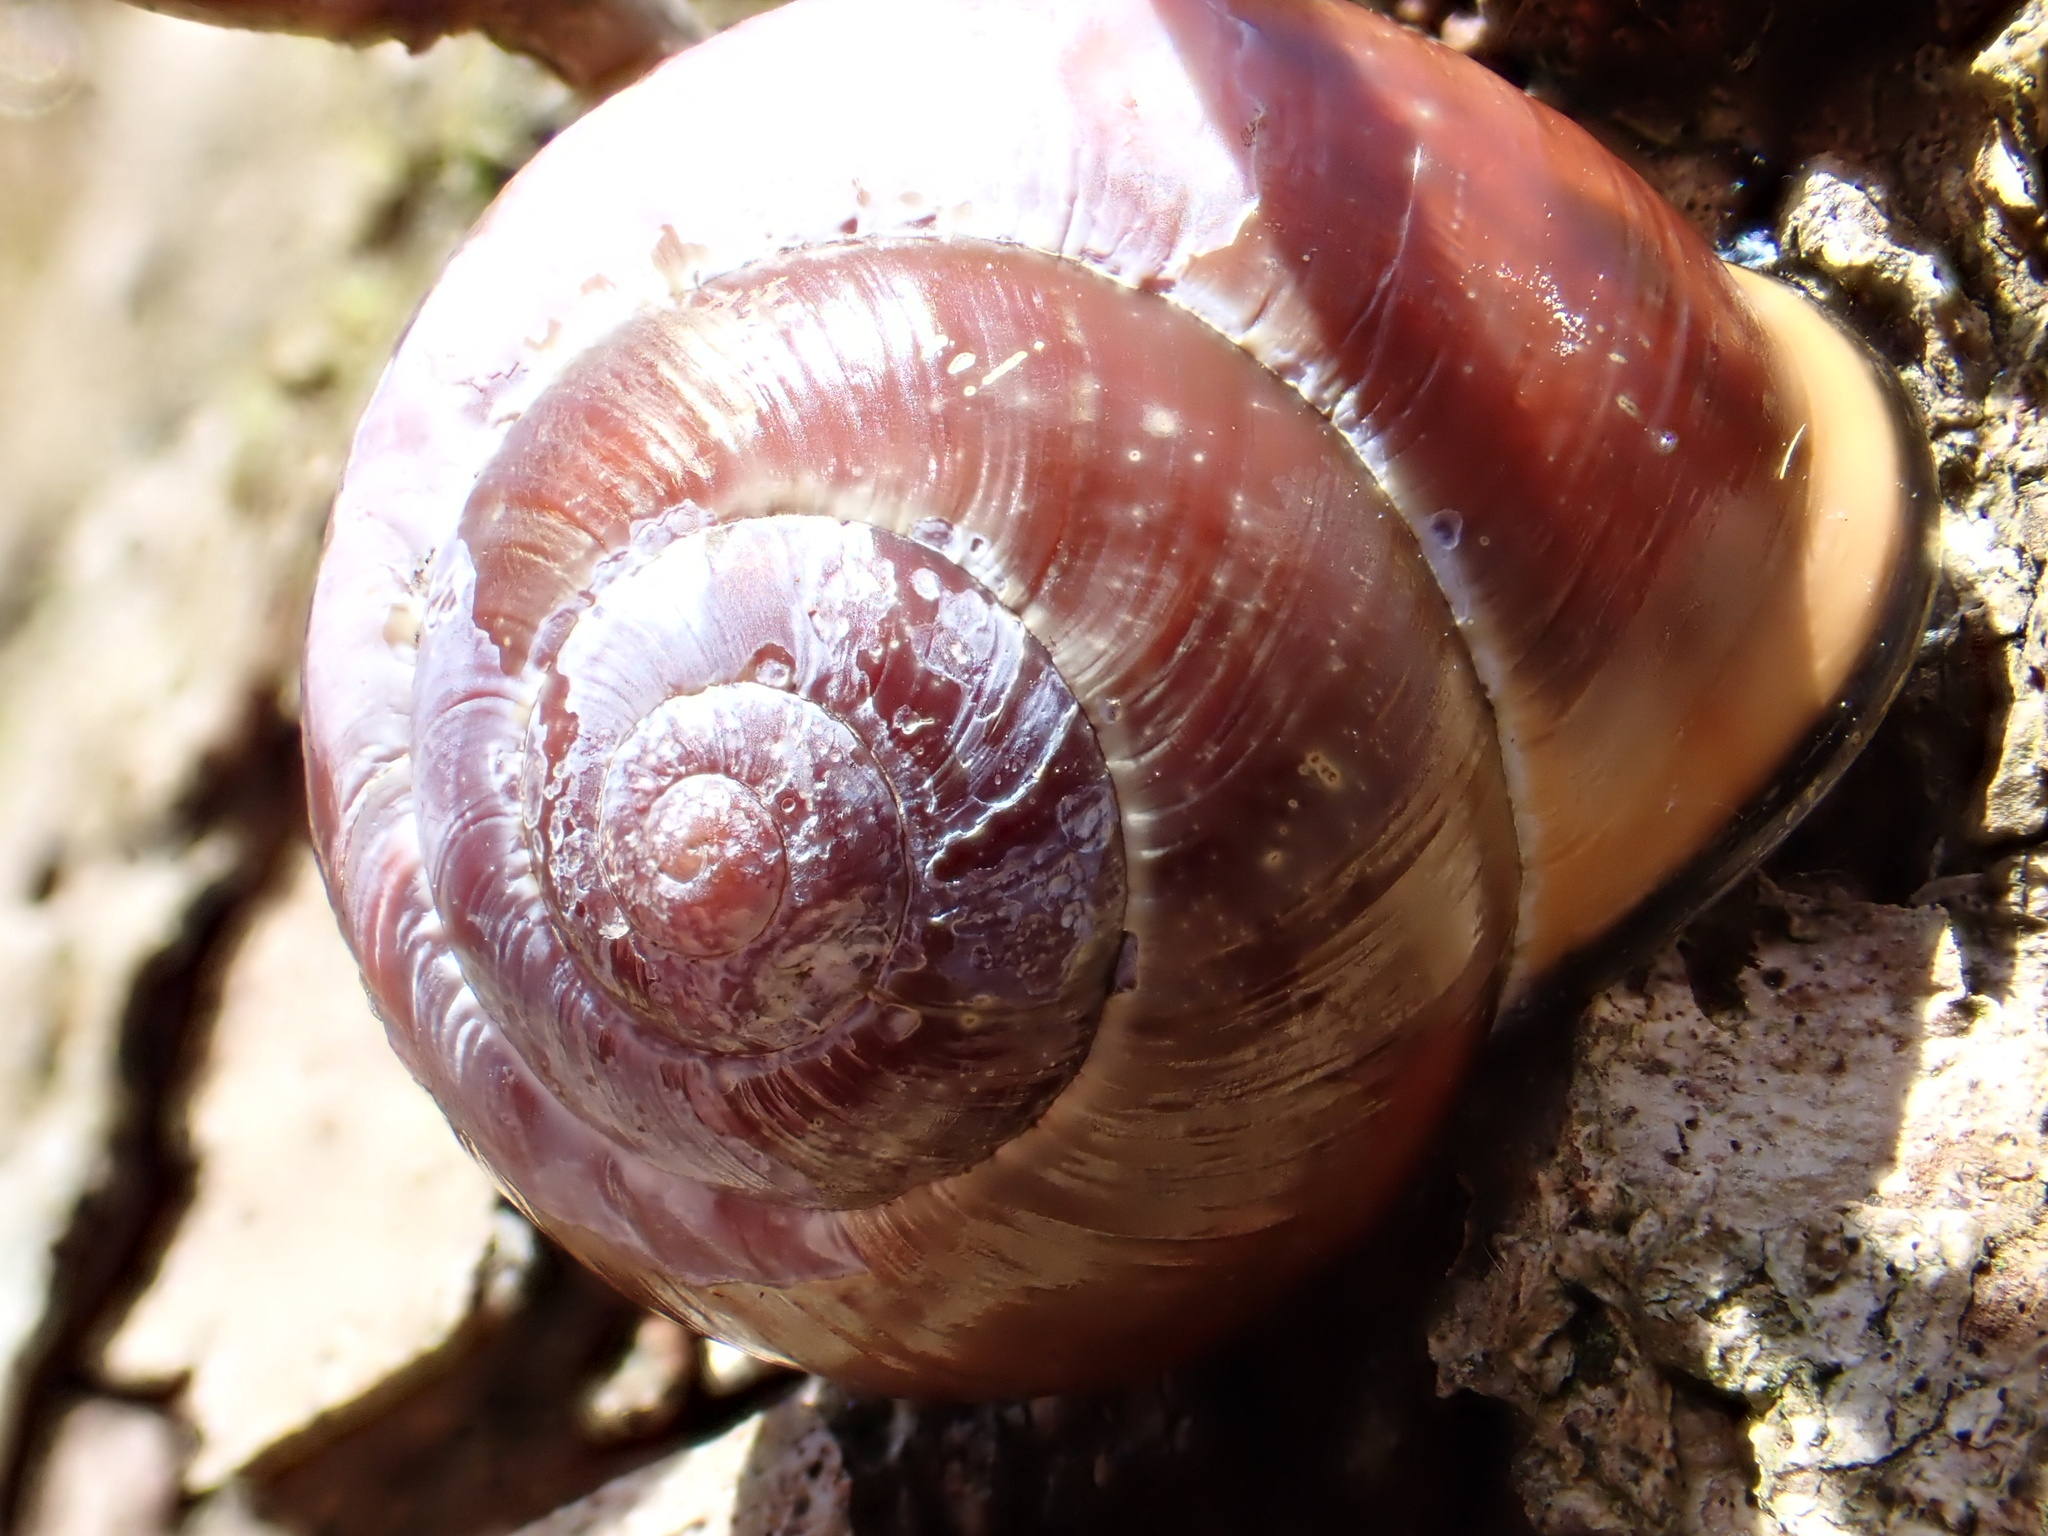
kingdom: Animalia
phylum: Mollusca
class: Gastropoda
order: Stylommatophora
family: Helicidae
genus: Cepaea
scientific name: Cepaea nemoralis
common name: Grovesnail
